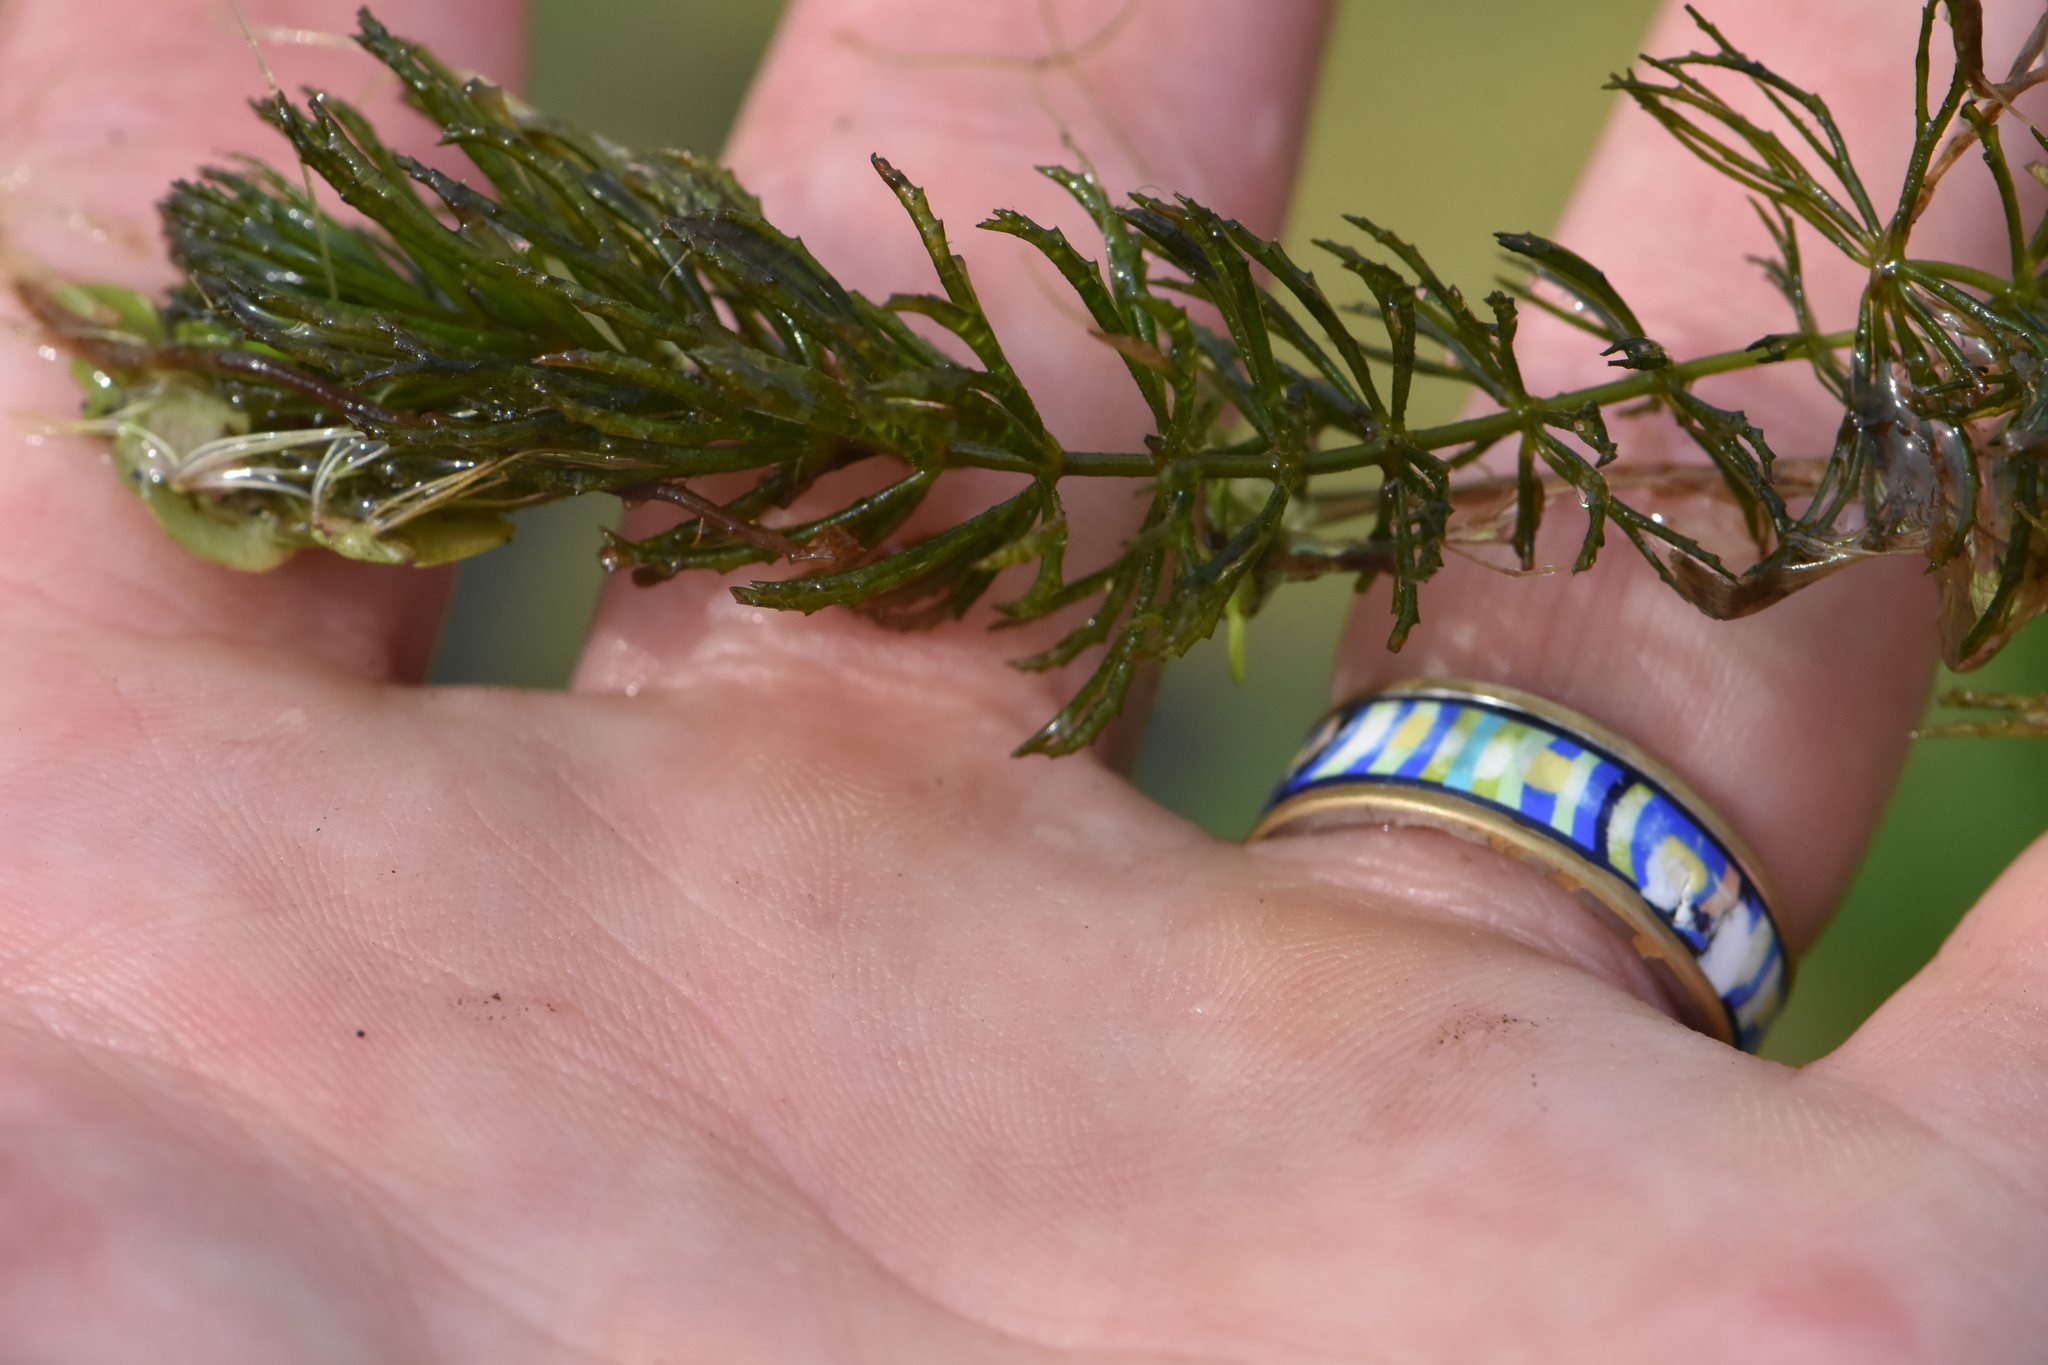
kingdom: Plantae
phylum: Tracheophyta
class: Magnoliopsida
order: Ceratophyllales
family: Ceratophyllaceae
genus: Ceratophyllum
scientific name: Ceratophyllum demersum
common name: Rigid hornwort
